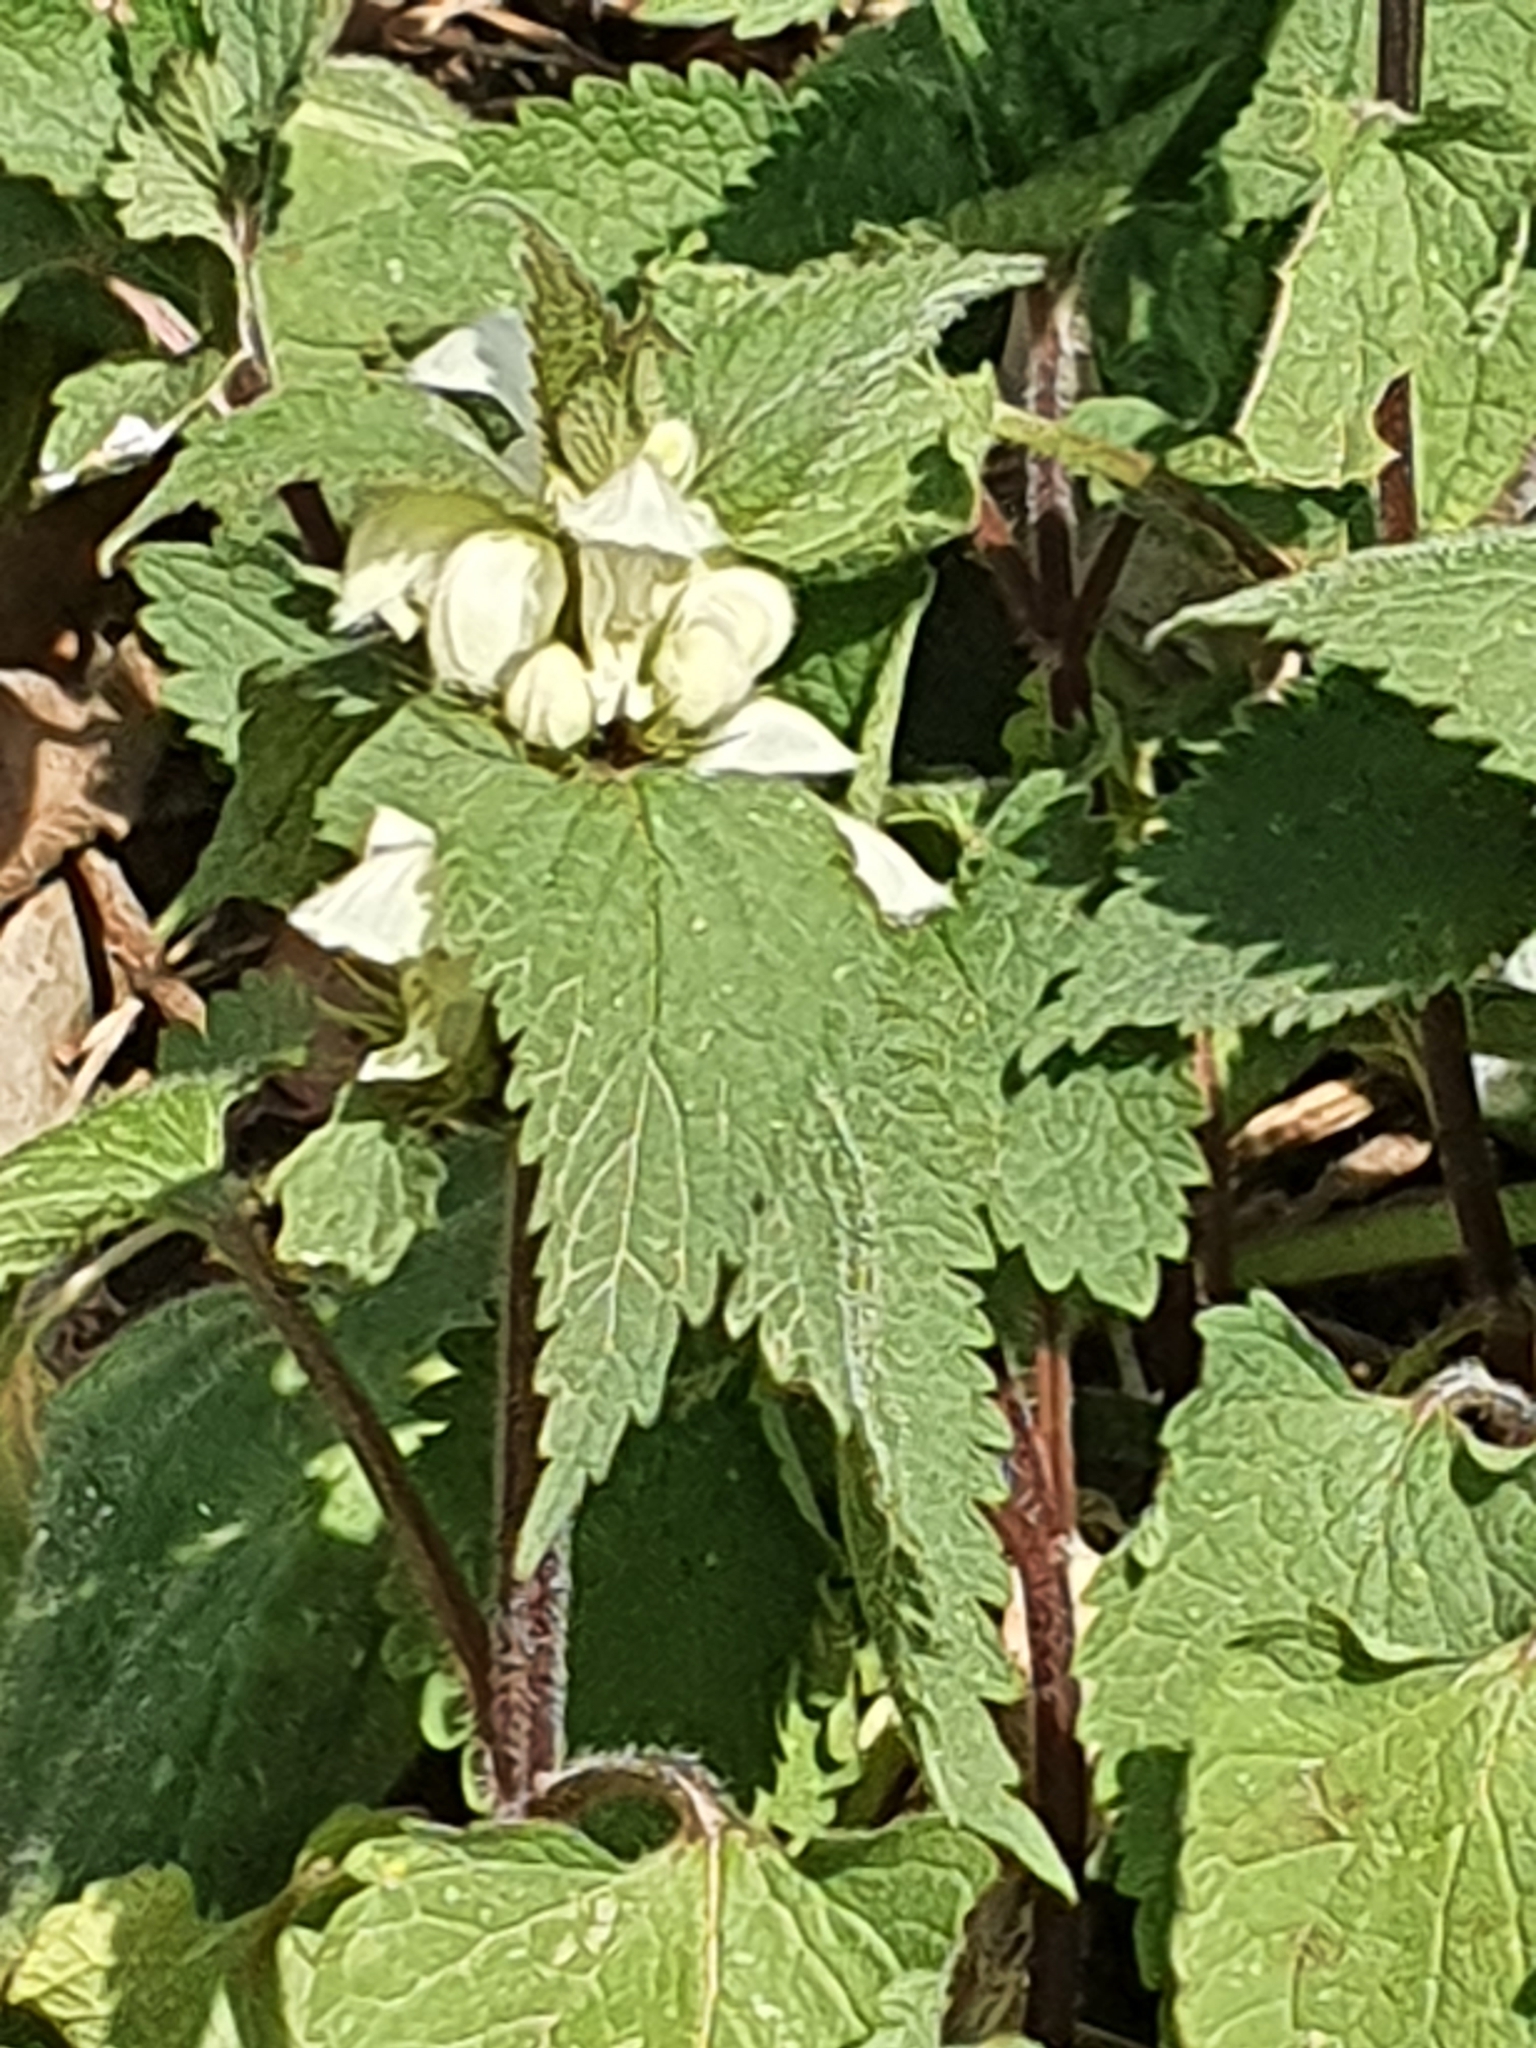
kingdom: Plantae
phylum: Tracheophyta
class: Magnoliopsida
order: Lamiales
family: Lamiaceae
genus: Lamium
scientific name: Lamium album
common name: White dead-nettle
